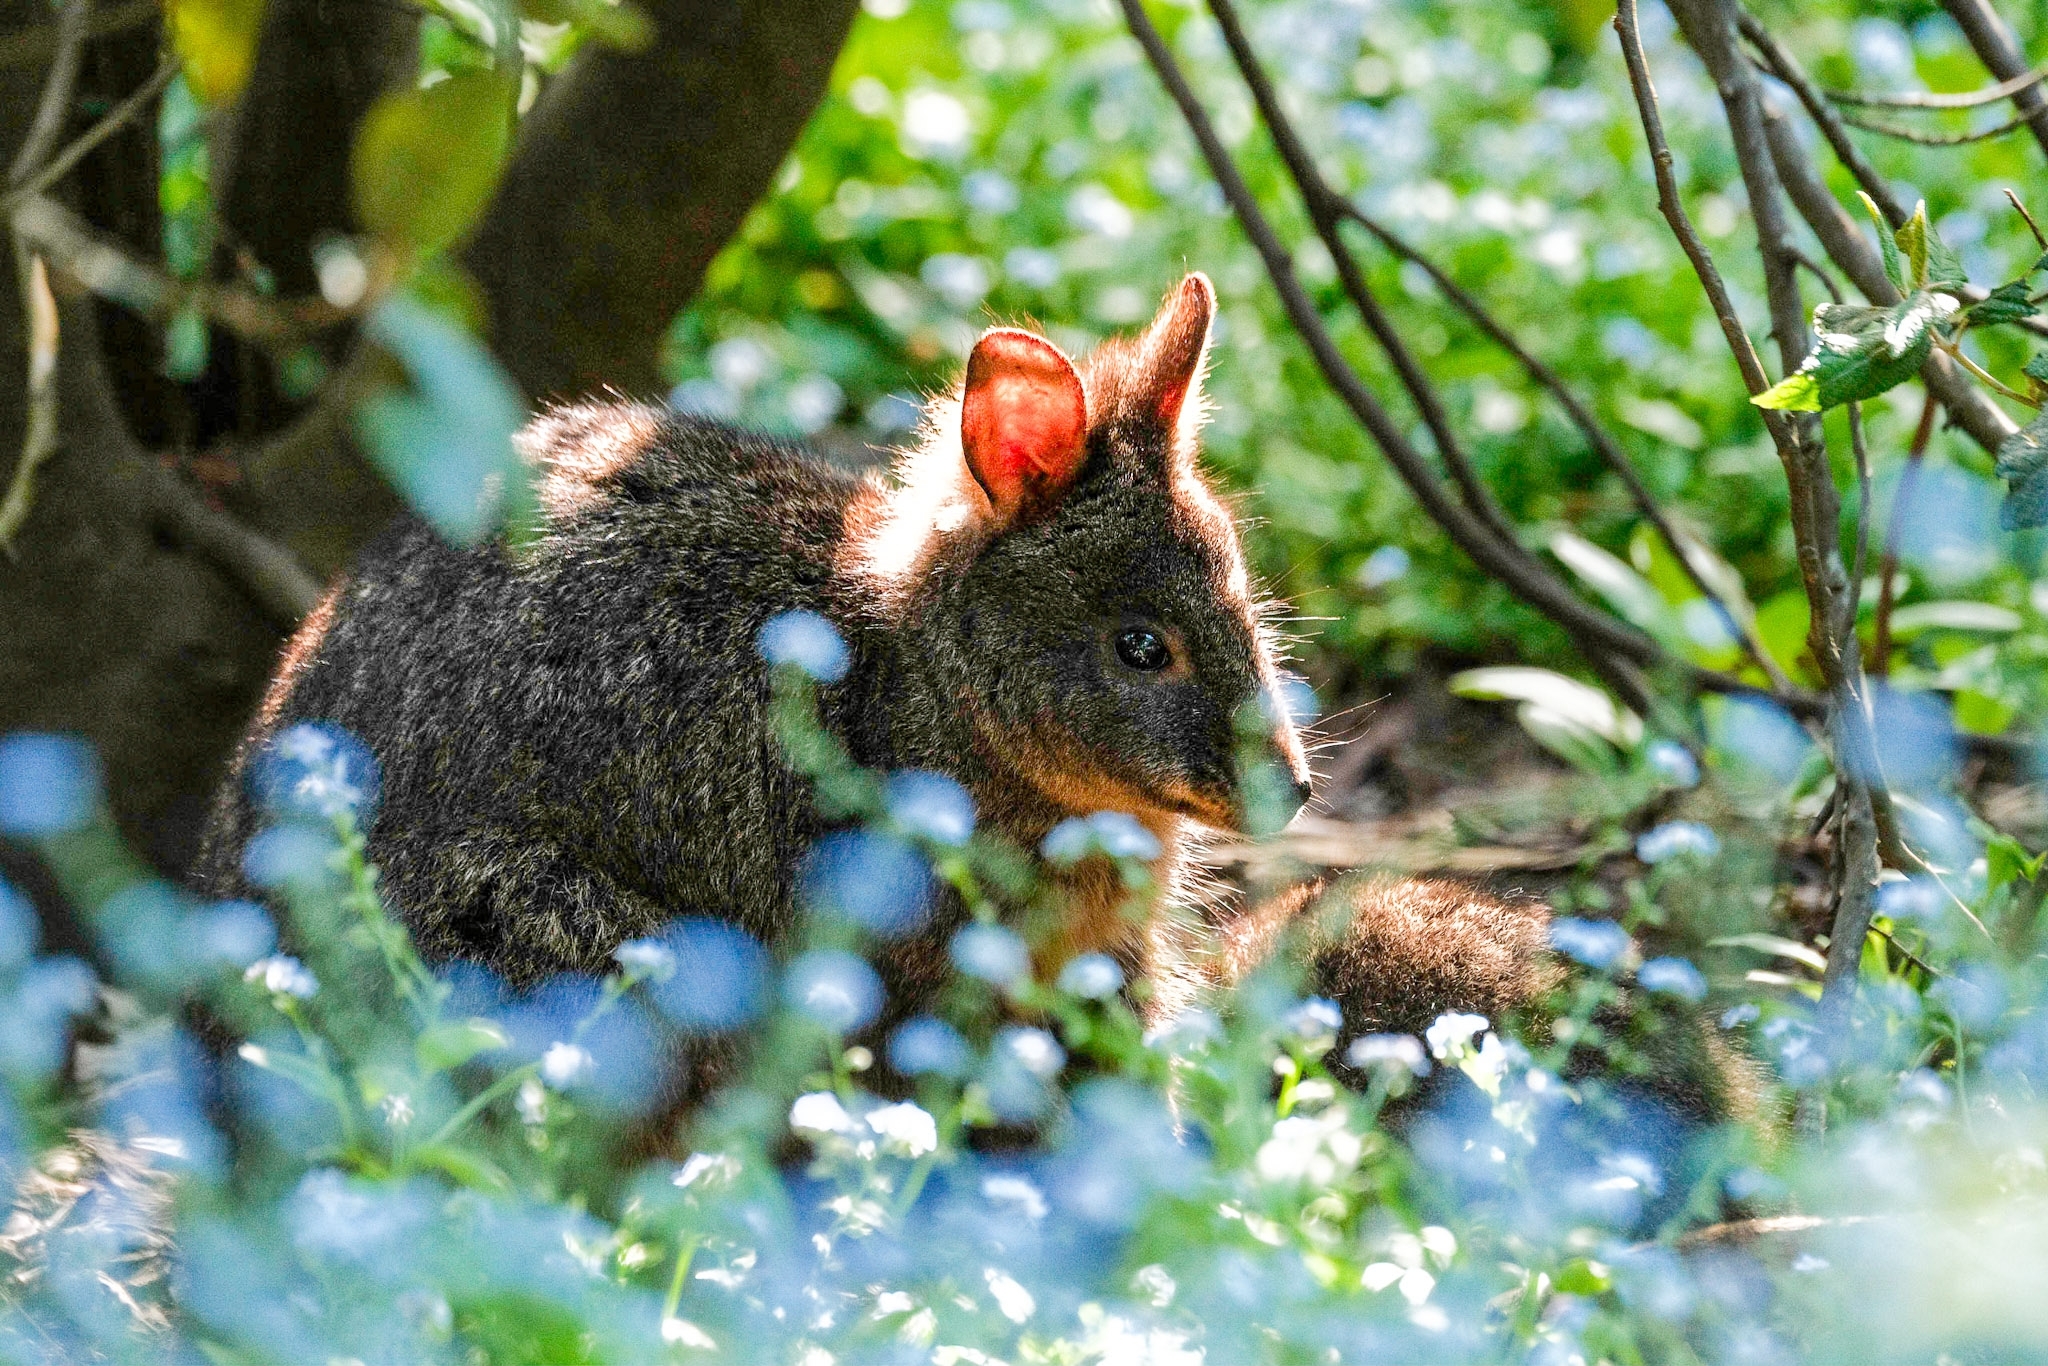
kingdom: Animalia
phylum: Chordata
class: Mammalia
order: Diprotodontia
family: Macropodidae
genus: Thylogale
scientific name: Thylogale billardierii
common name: Tasmanian pademelon
